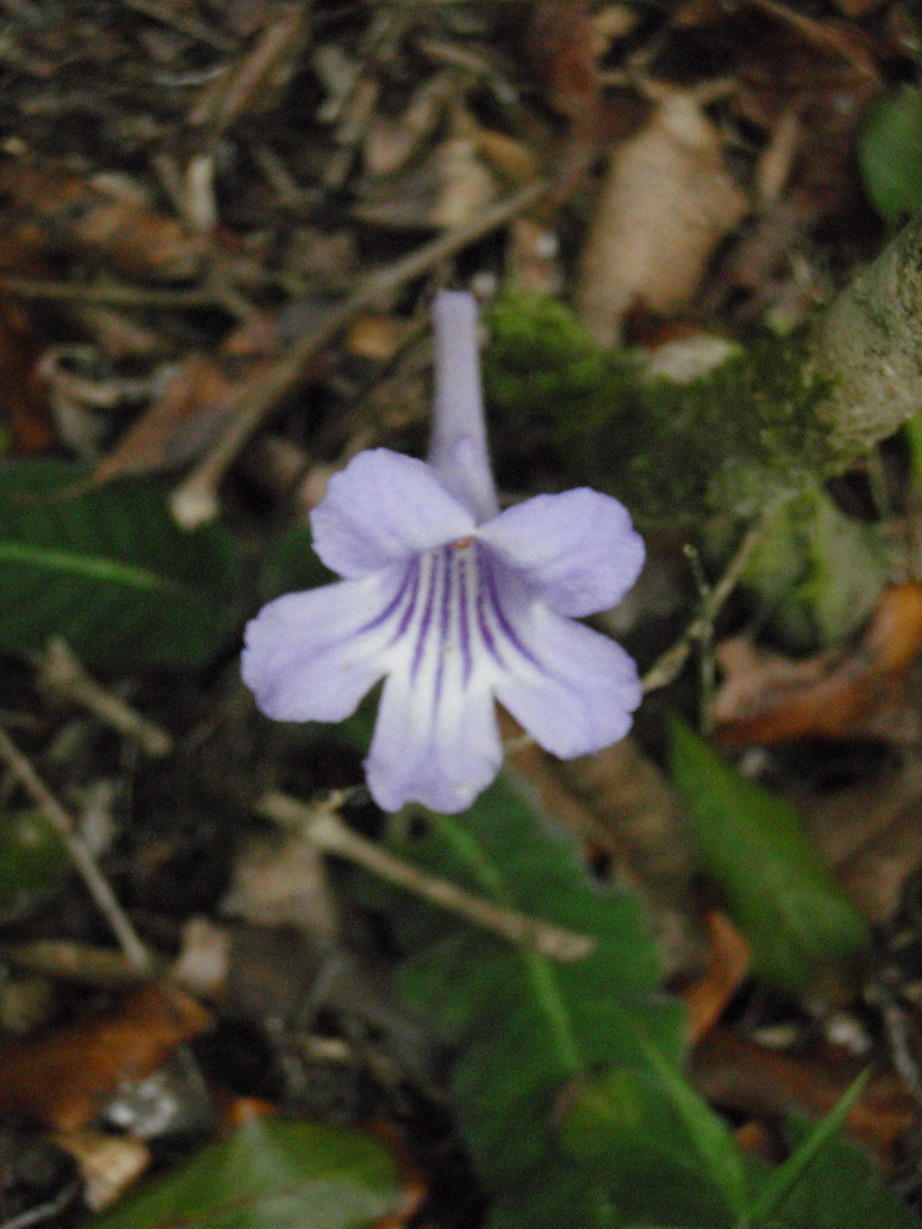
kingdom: Plantae
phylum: Tracheophyta
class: Magnoliopsida
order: Lamiales
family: Gesneriaceae
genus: Streptocarpus
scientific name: Streptocarpus rexii
